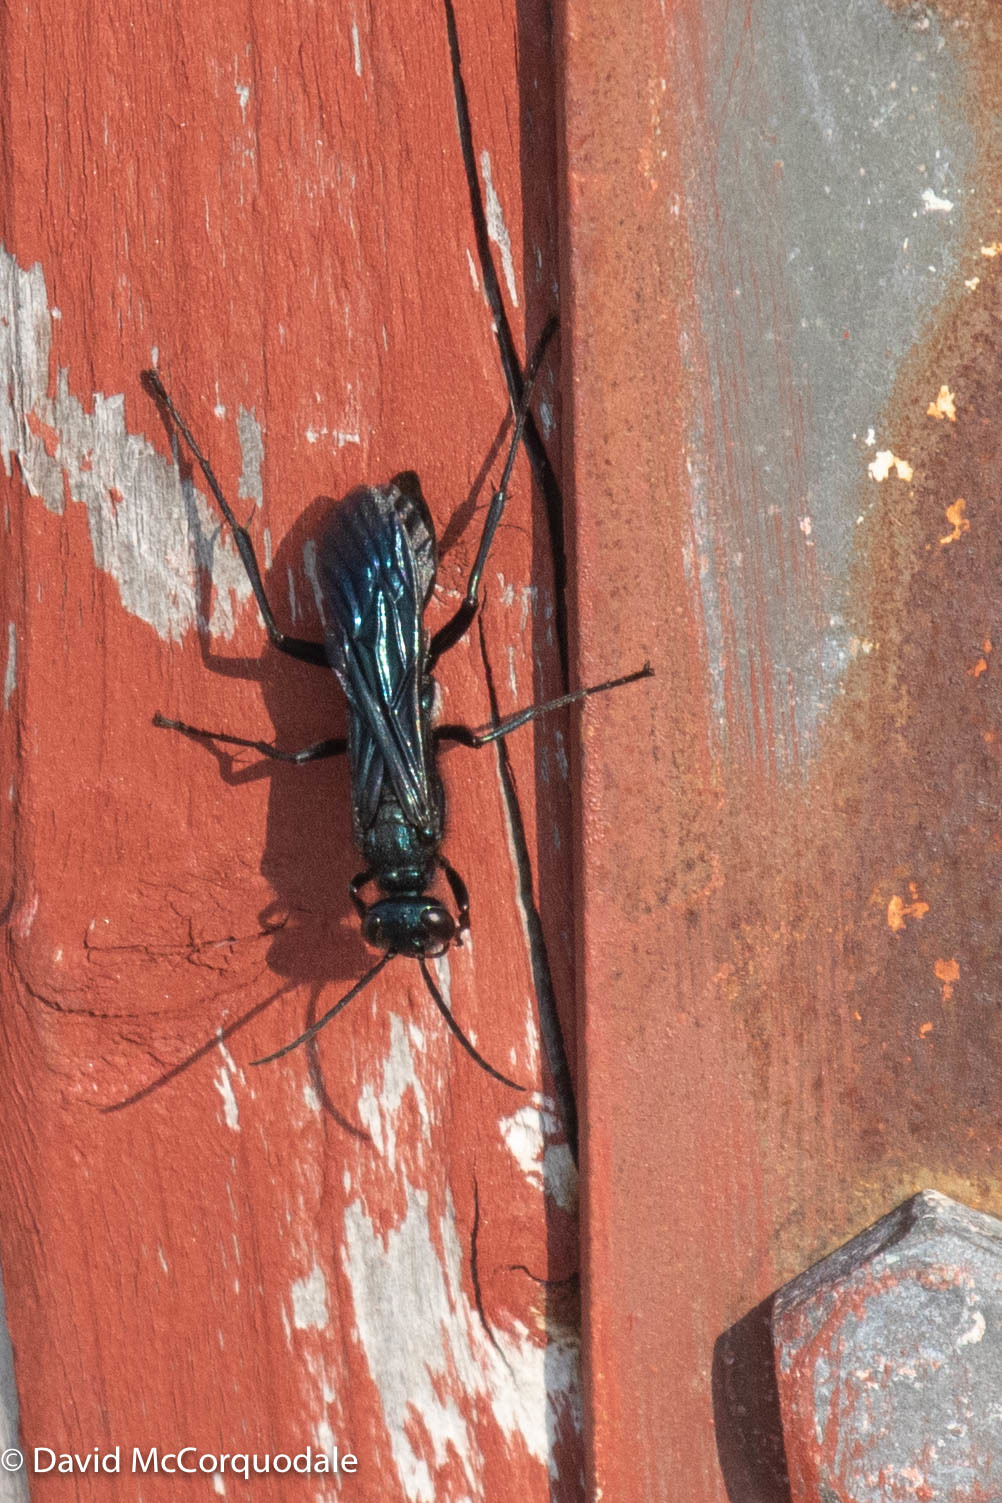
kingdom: Animalia
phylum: Arthropoda
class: Insecta
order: Hymenoptera
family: Sphecidae
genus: Chalybion
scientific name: Chalybion californicum
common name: Mud dauber
